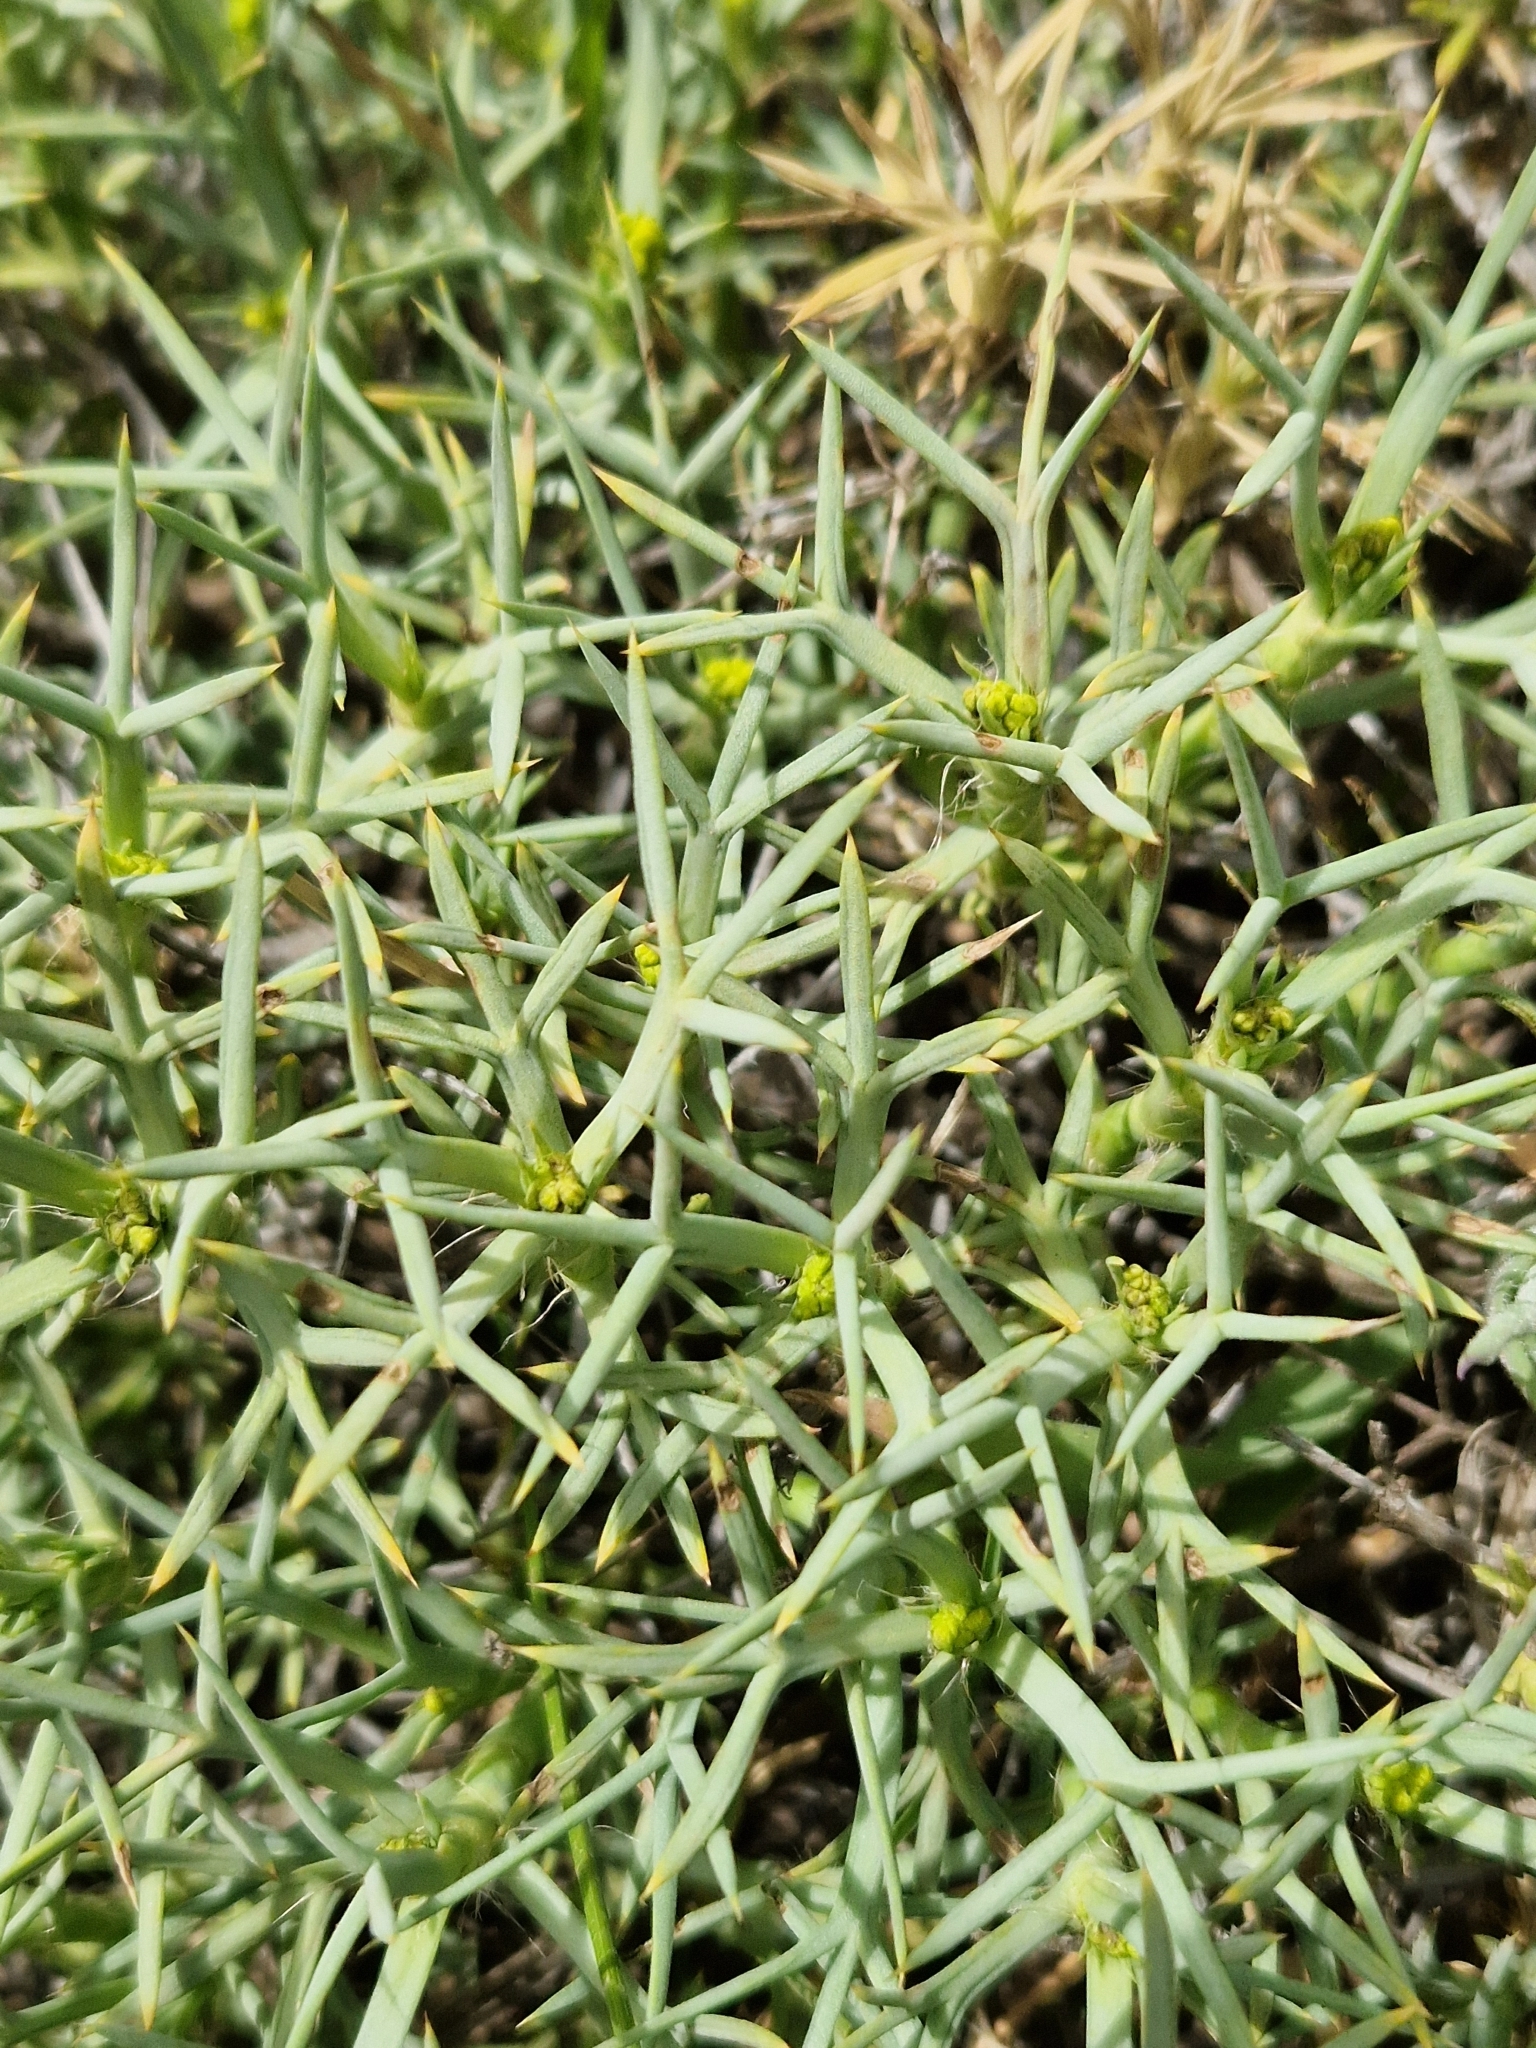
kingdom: Plantae
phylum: Tracheophyta
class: Magnoliopsida
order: Apiales
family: Apiaceae
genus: Azorella
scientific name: Azorella prolifera
